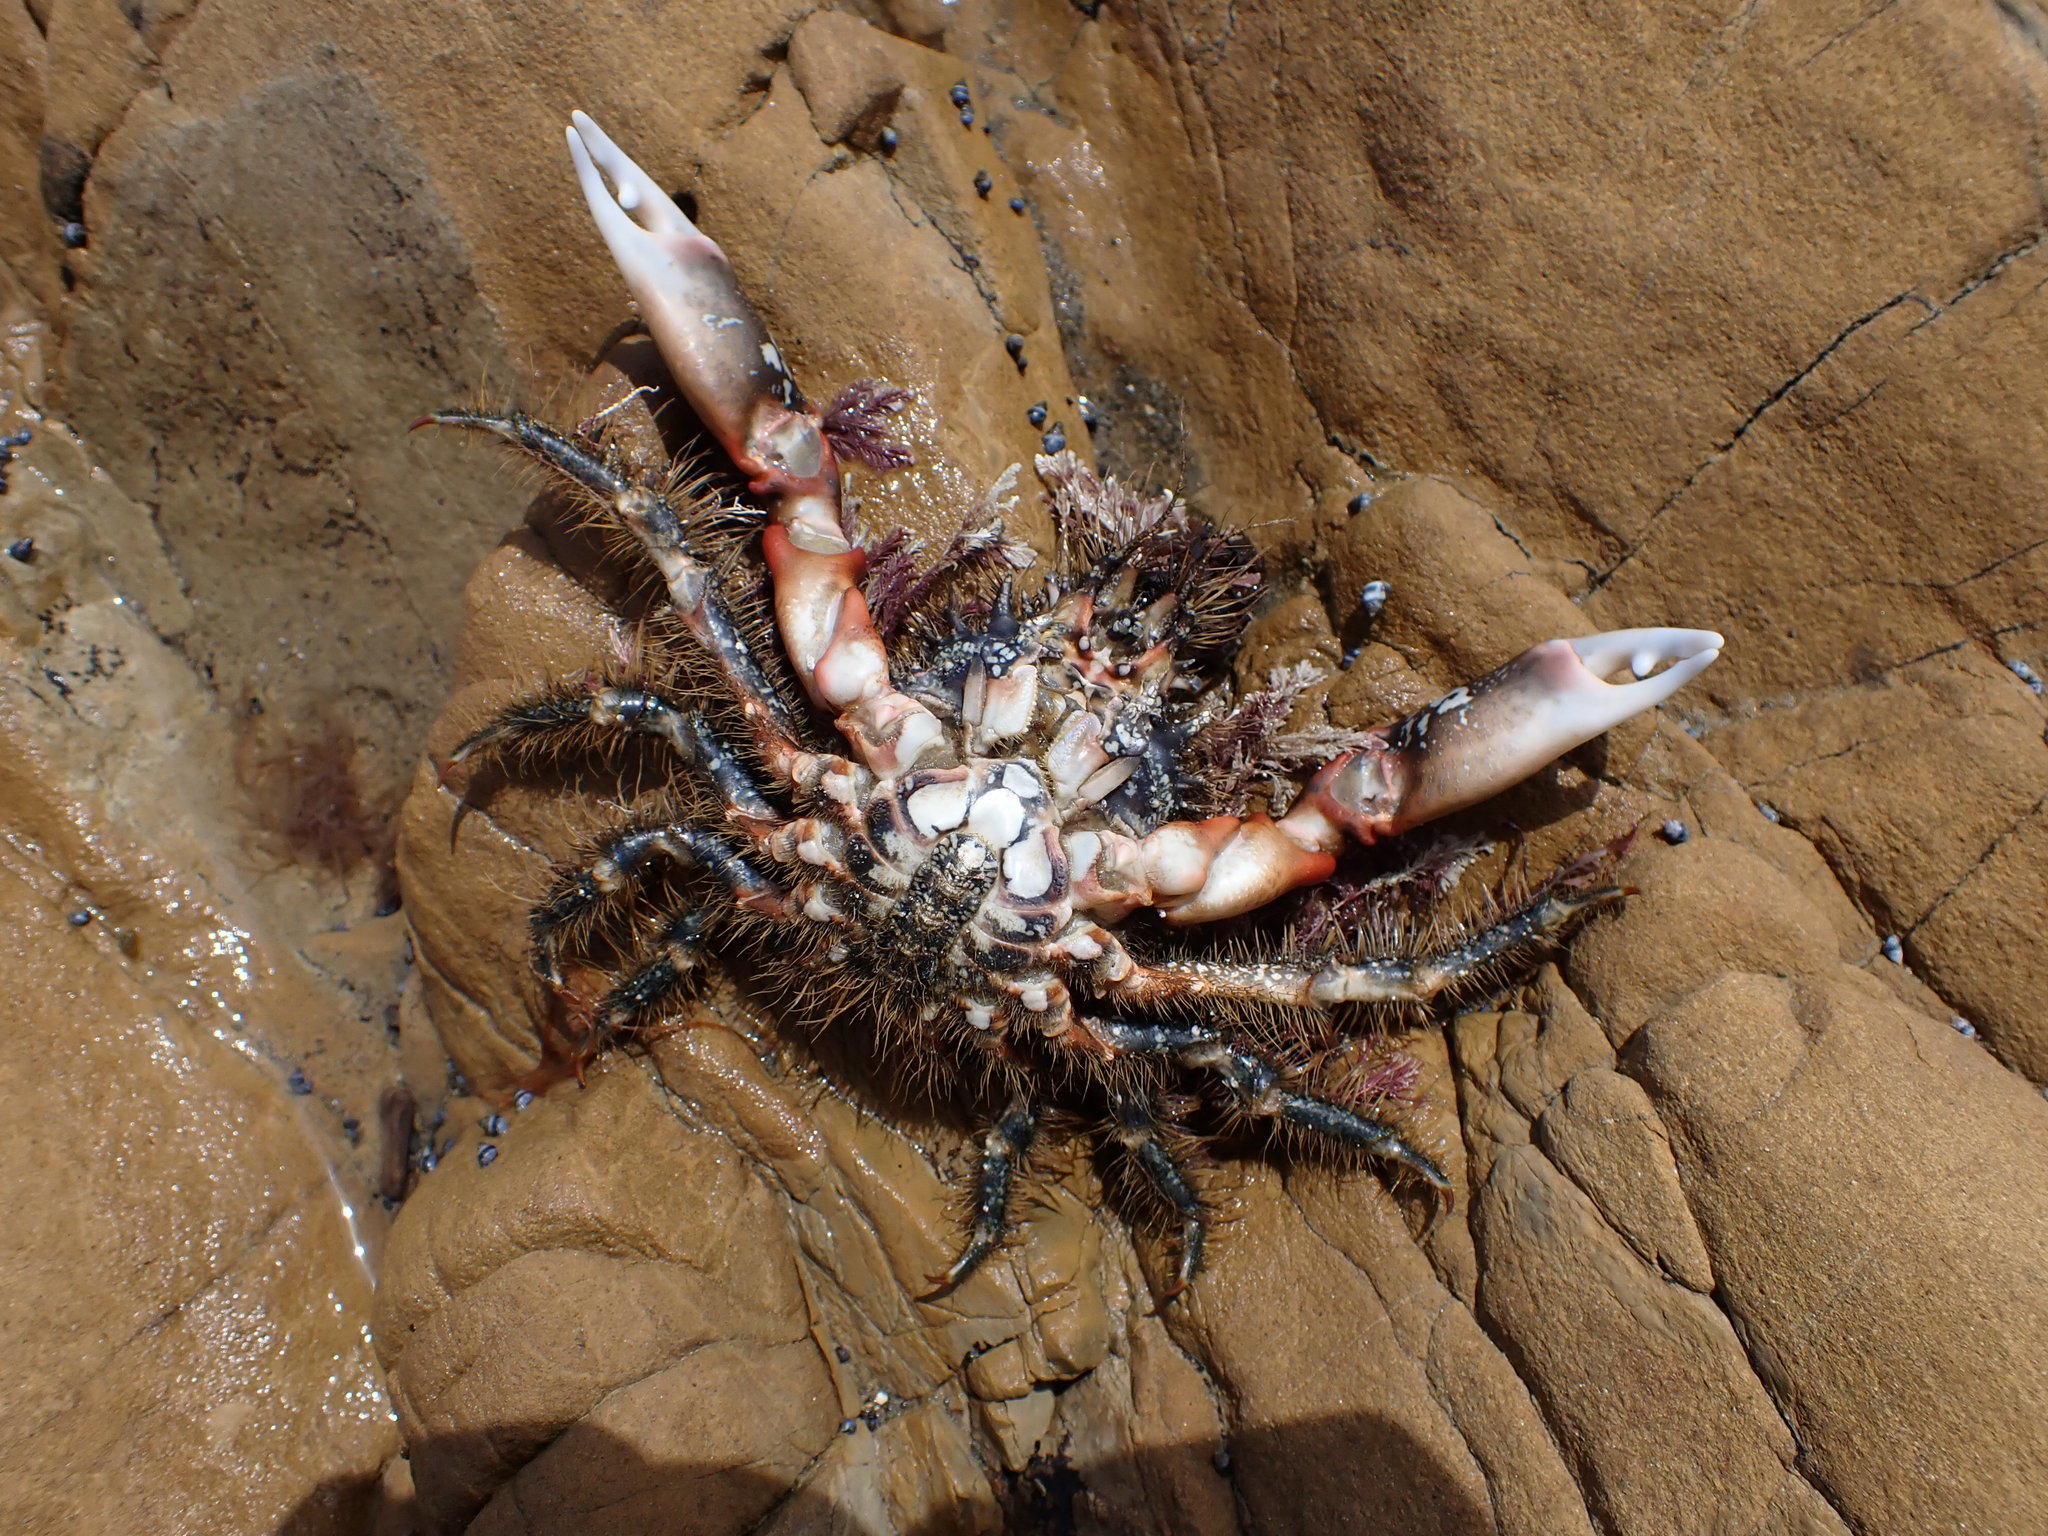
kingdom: Animalia
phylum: Arthropoda
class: Malacostraca
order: Decapoda
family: Majidae
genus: Notomithrax
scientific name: Notomithrax ursus
